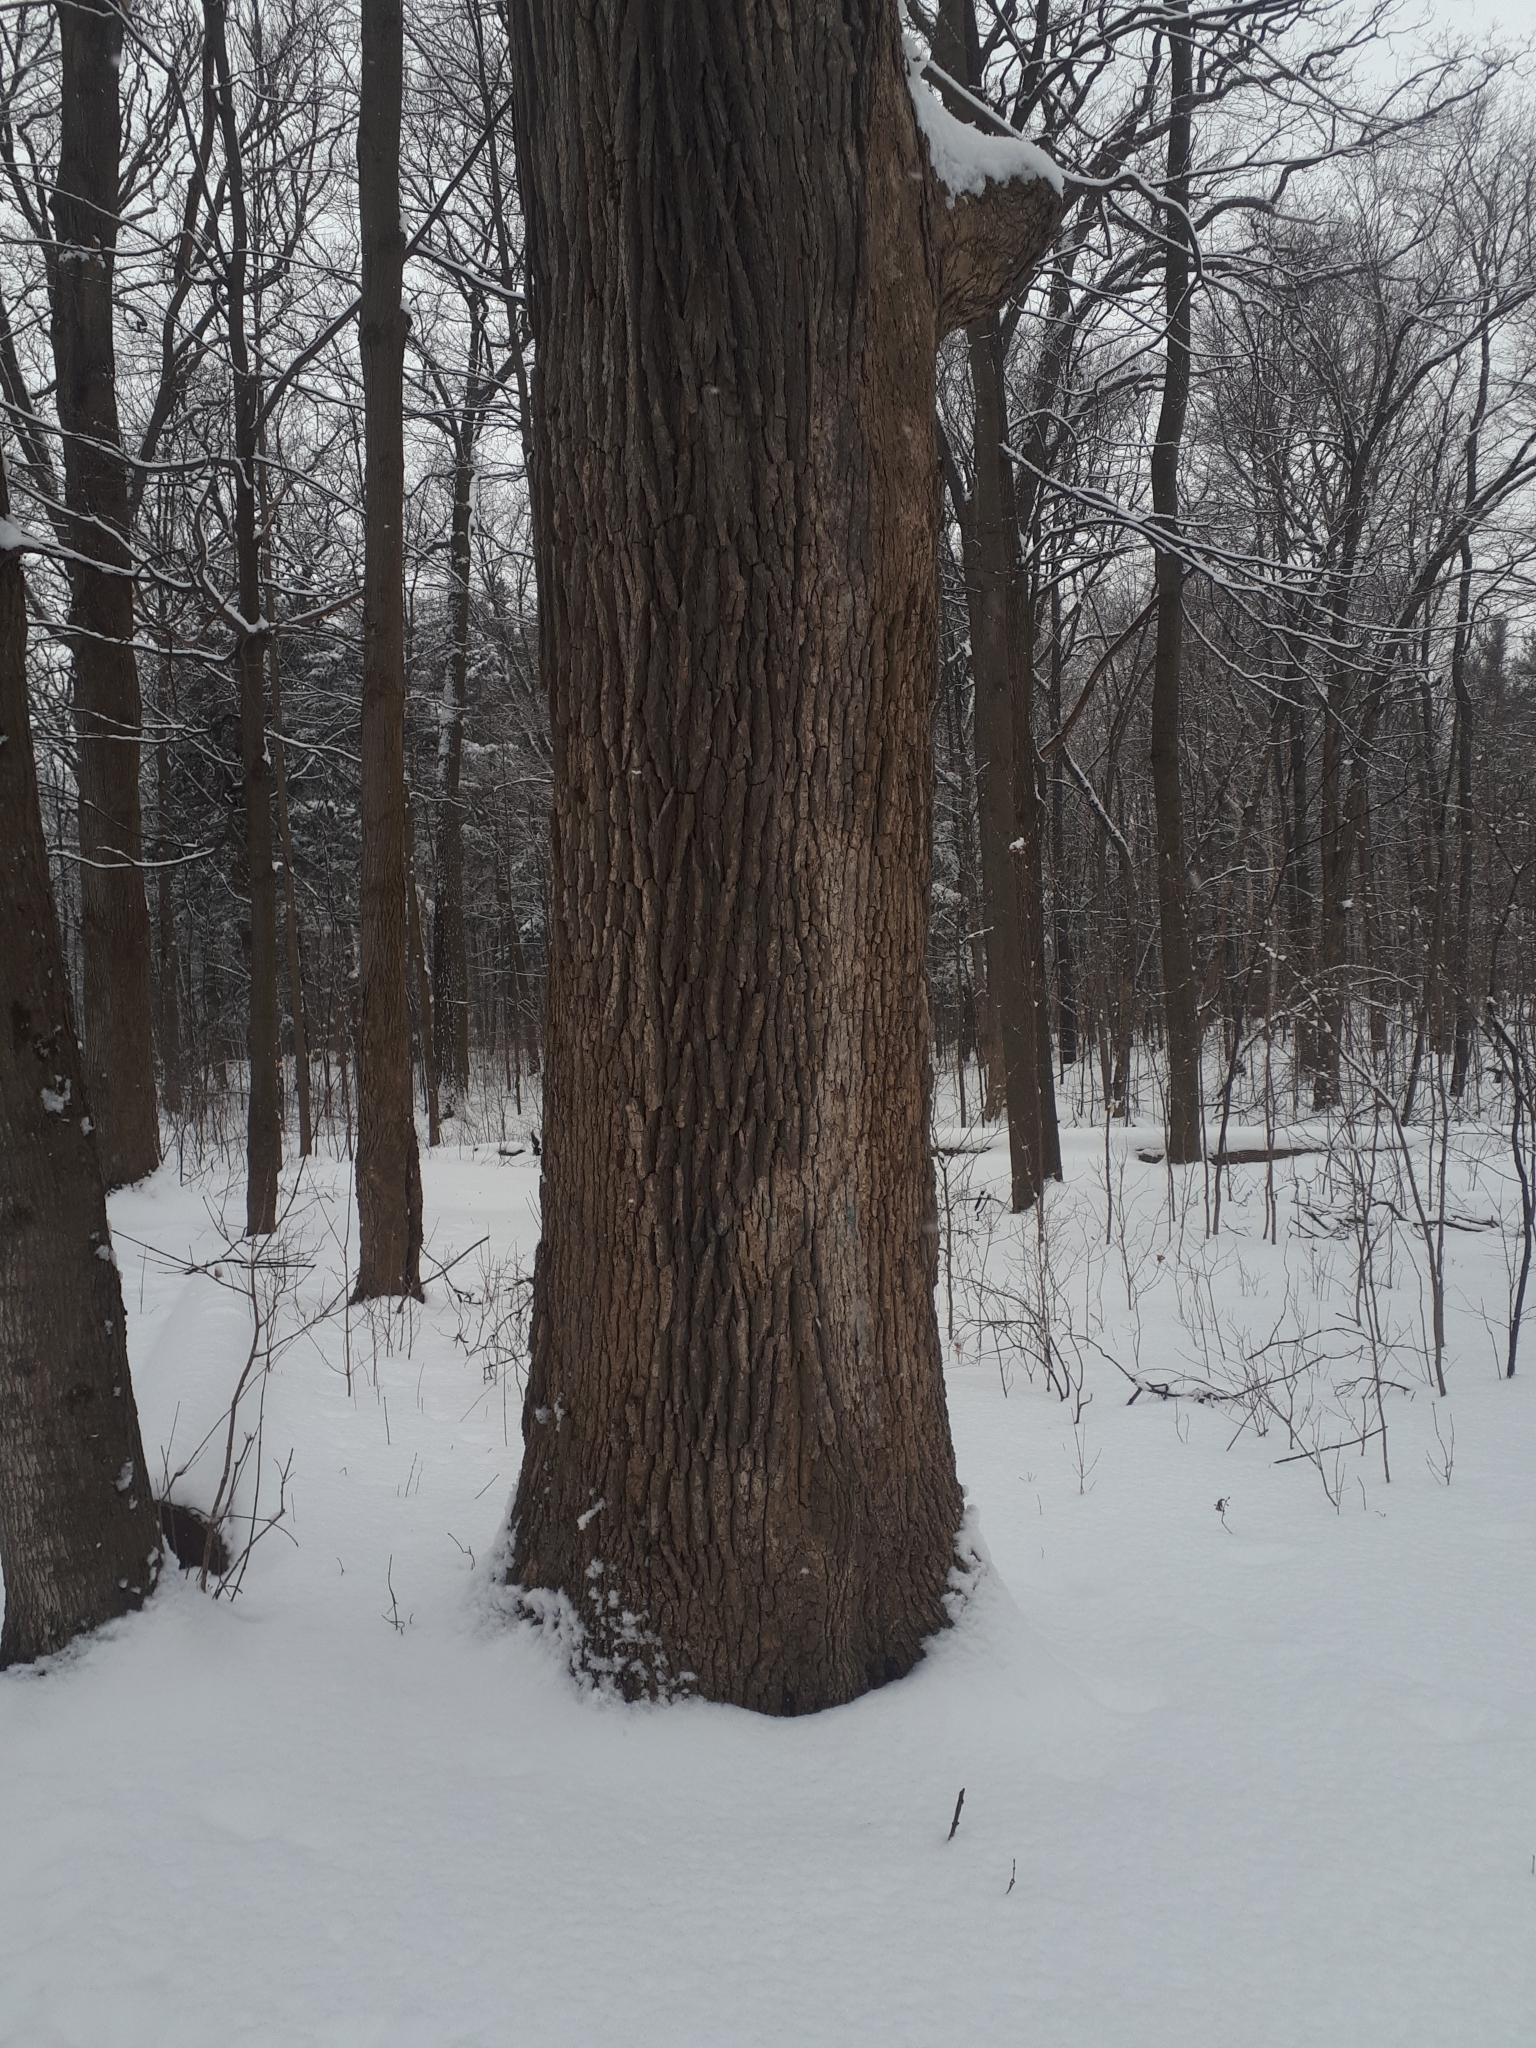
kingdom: Plantae
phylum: Tracheophyta
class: Magnoliopsida
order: Fagales
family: Fagaceae
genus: Quercus
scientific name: Quercus alba
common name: White oak
